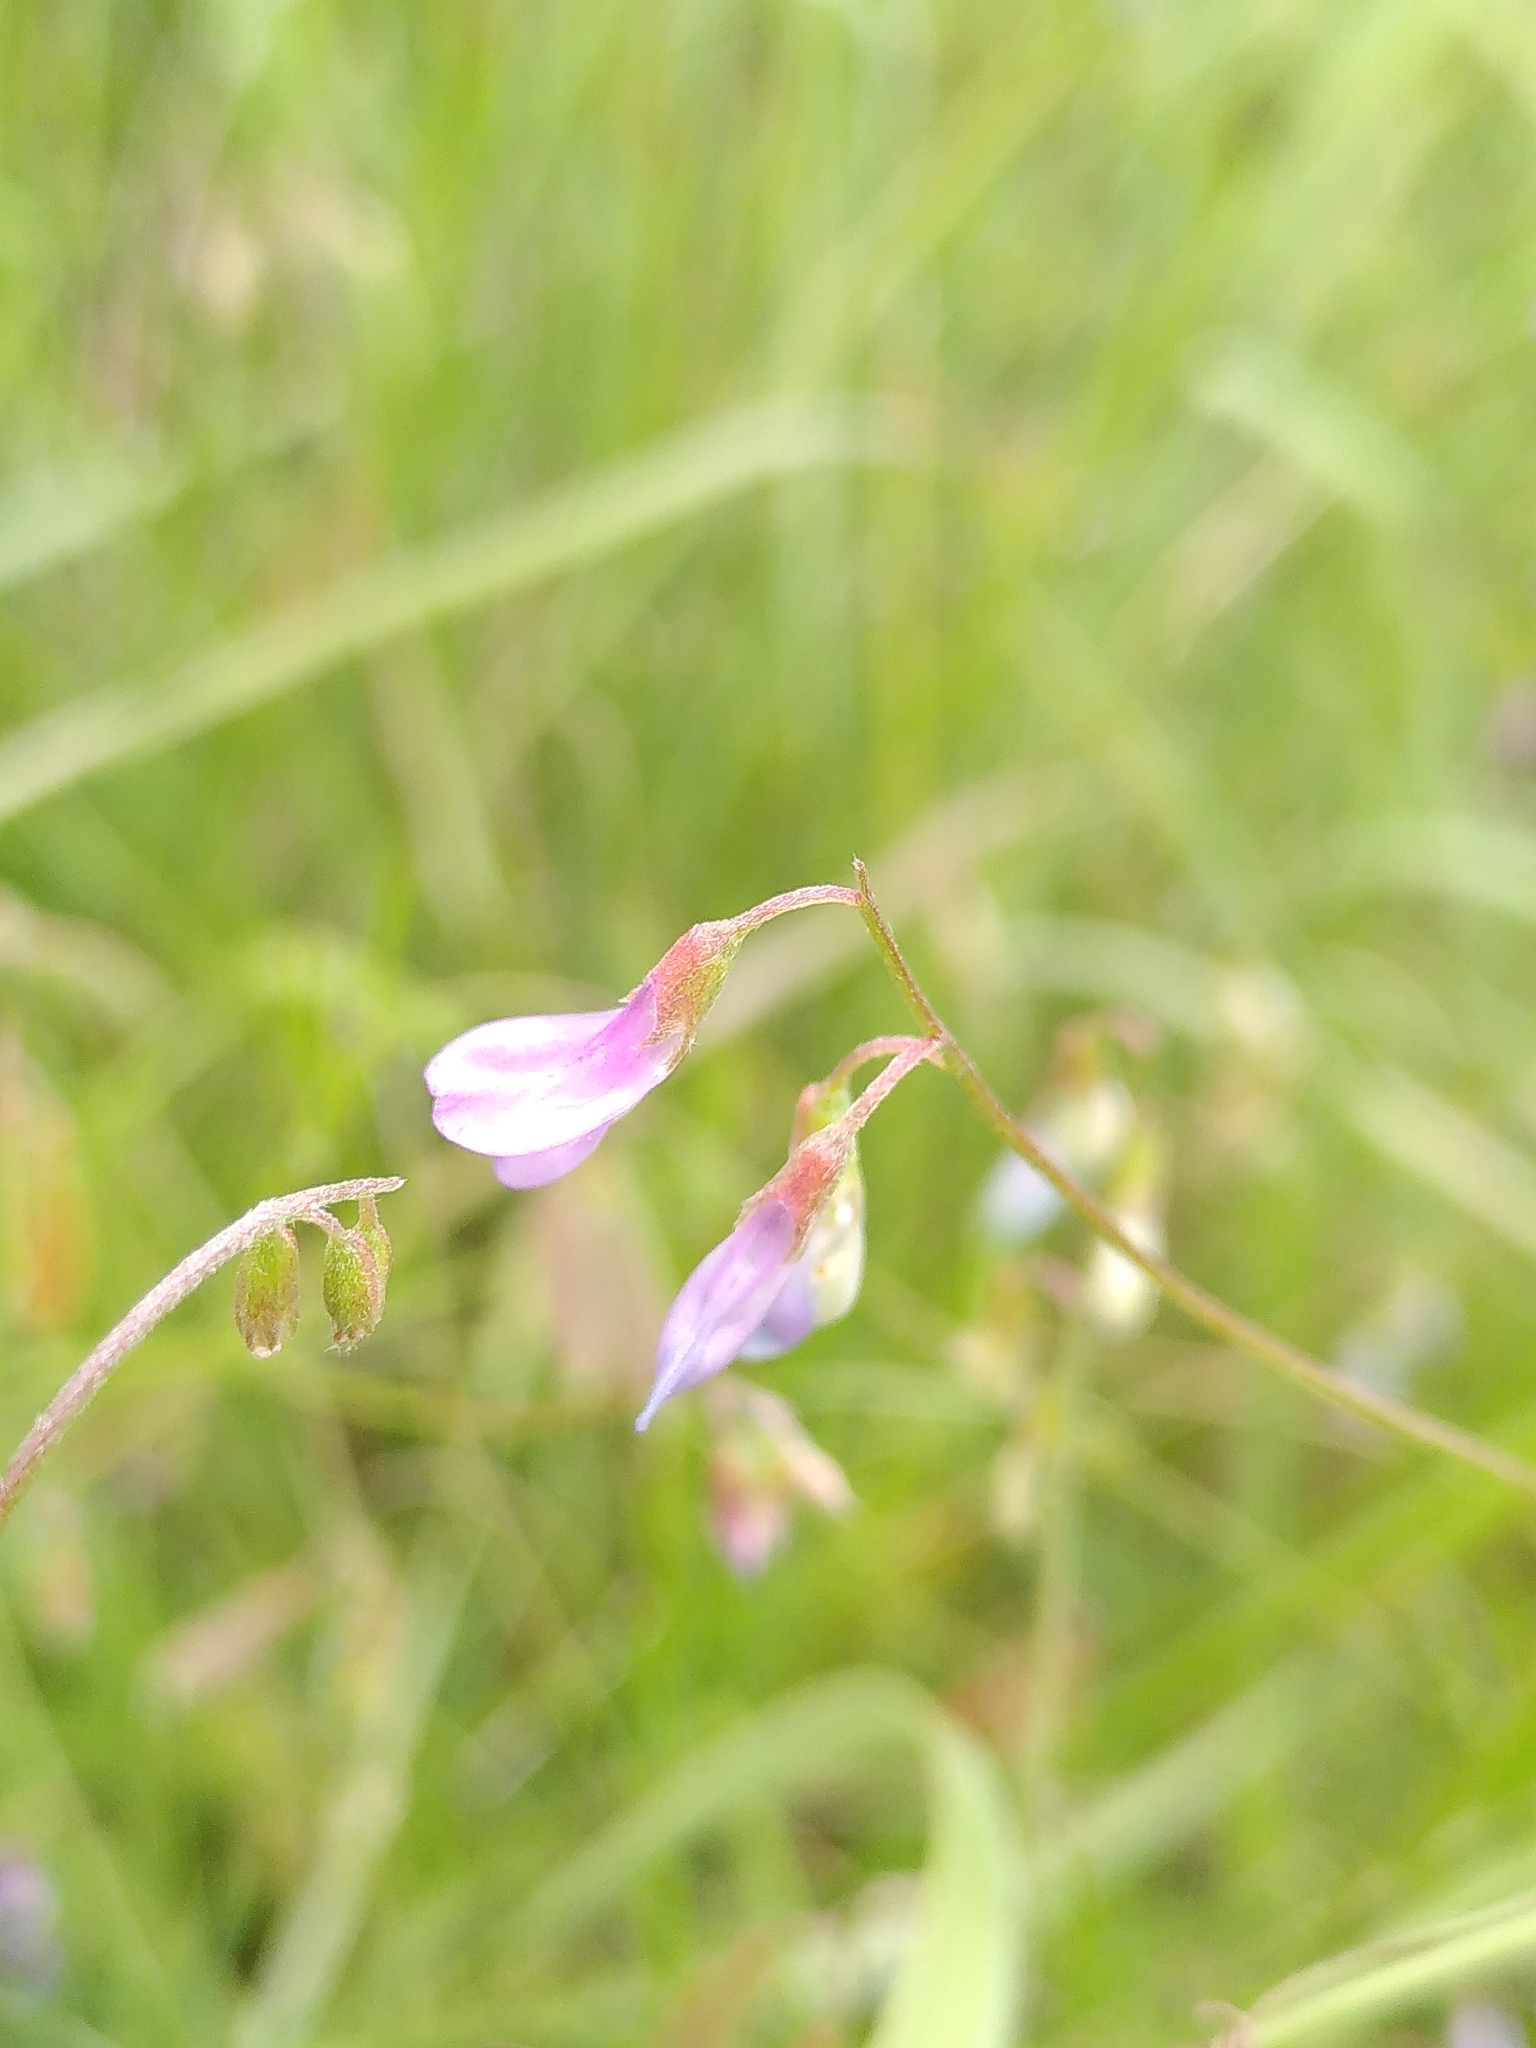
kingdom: Plantae
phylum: Tracheophyta
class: Magnoliopsida
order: Fabales
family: Fabaceae
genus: Vicia
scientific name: Vicia parviflora
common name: Slender tare
